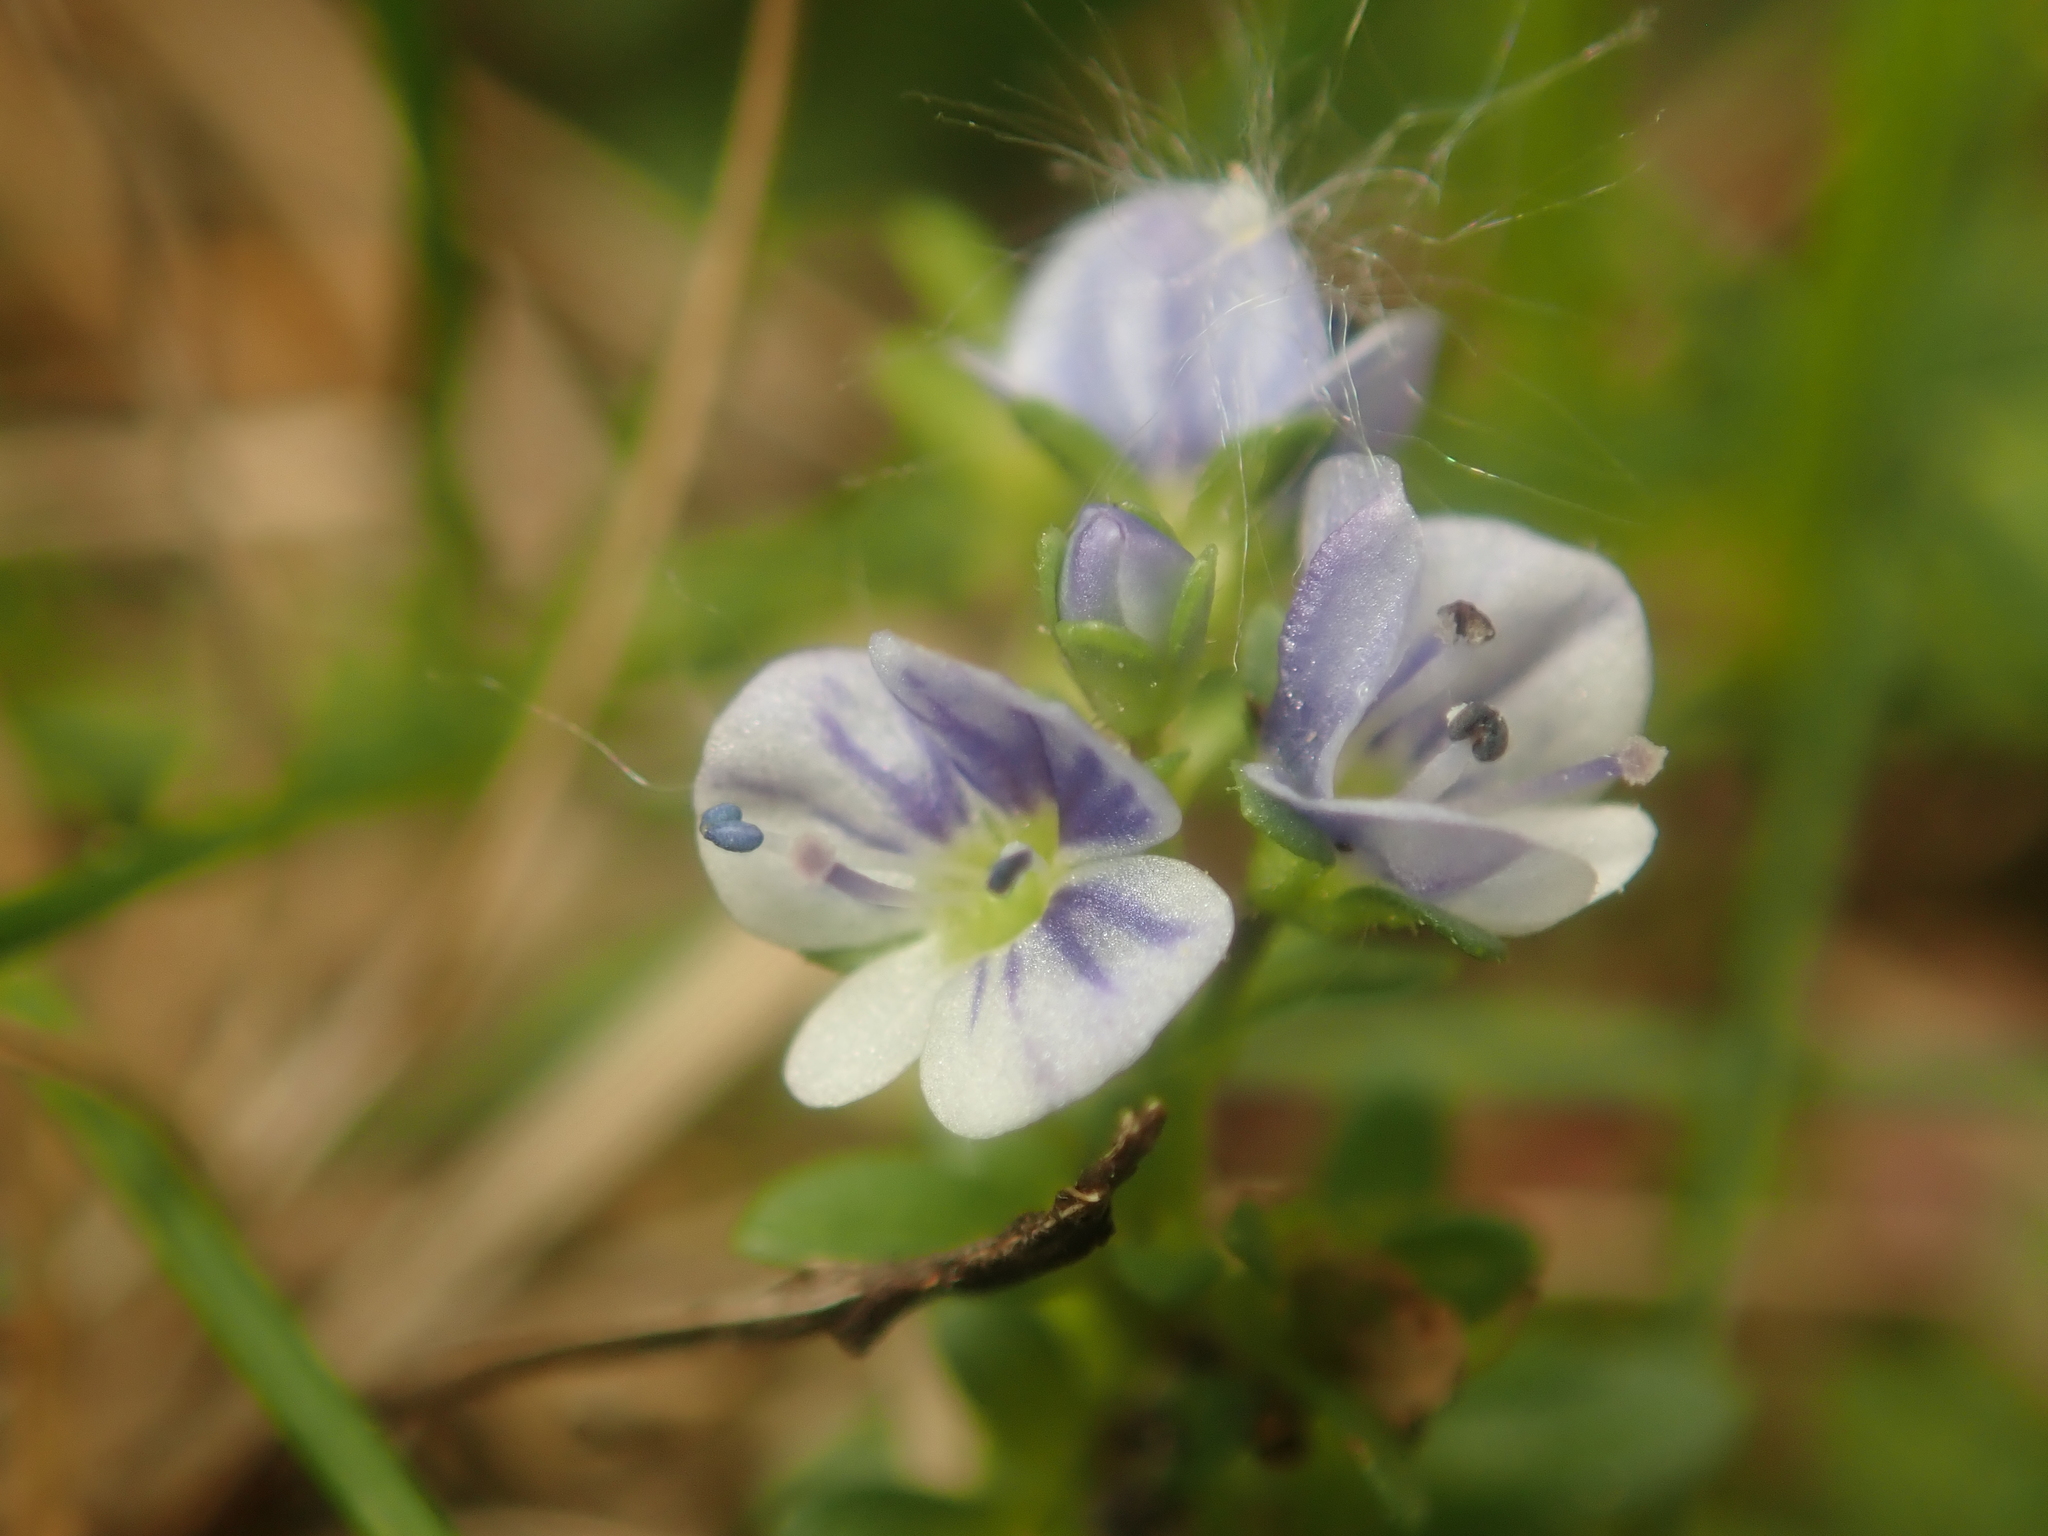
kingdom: Plantae
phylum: Tracheophyta
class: Magnoliopsida
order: Lamiales
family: Plantaginaceae
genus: Veronica
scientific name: Veronica serpyllifolia
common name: Thyme-leaved speedwell
